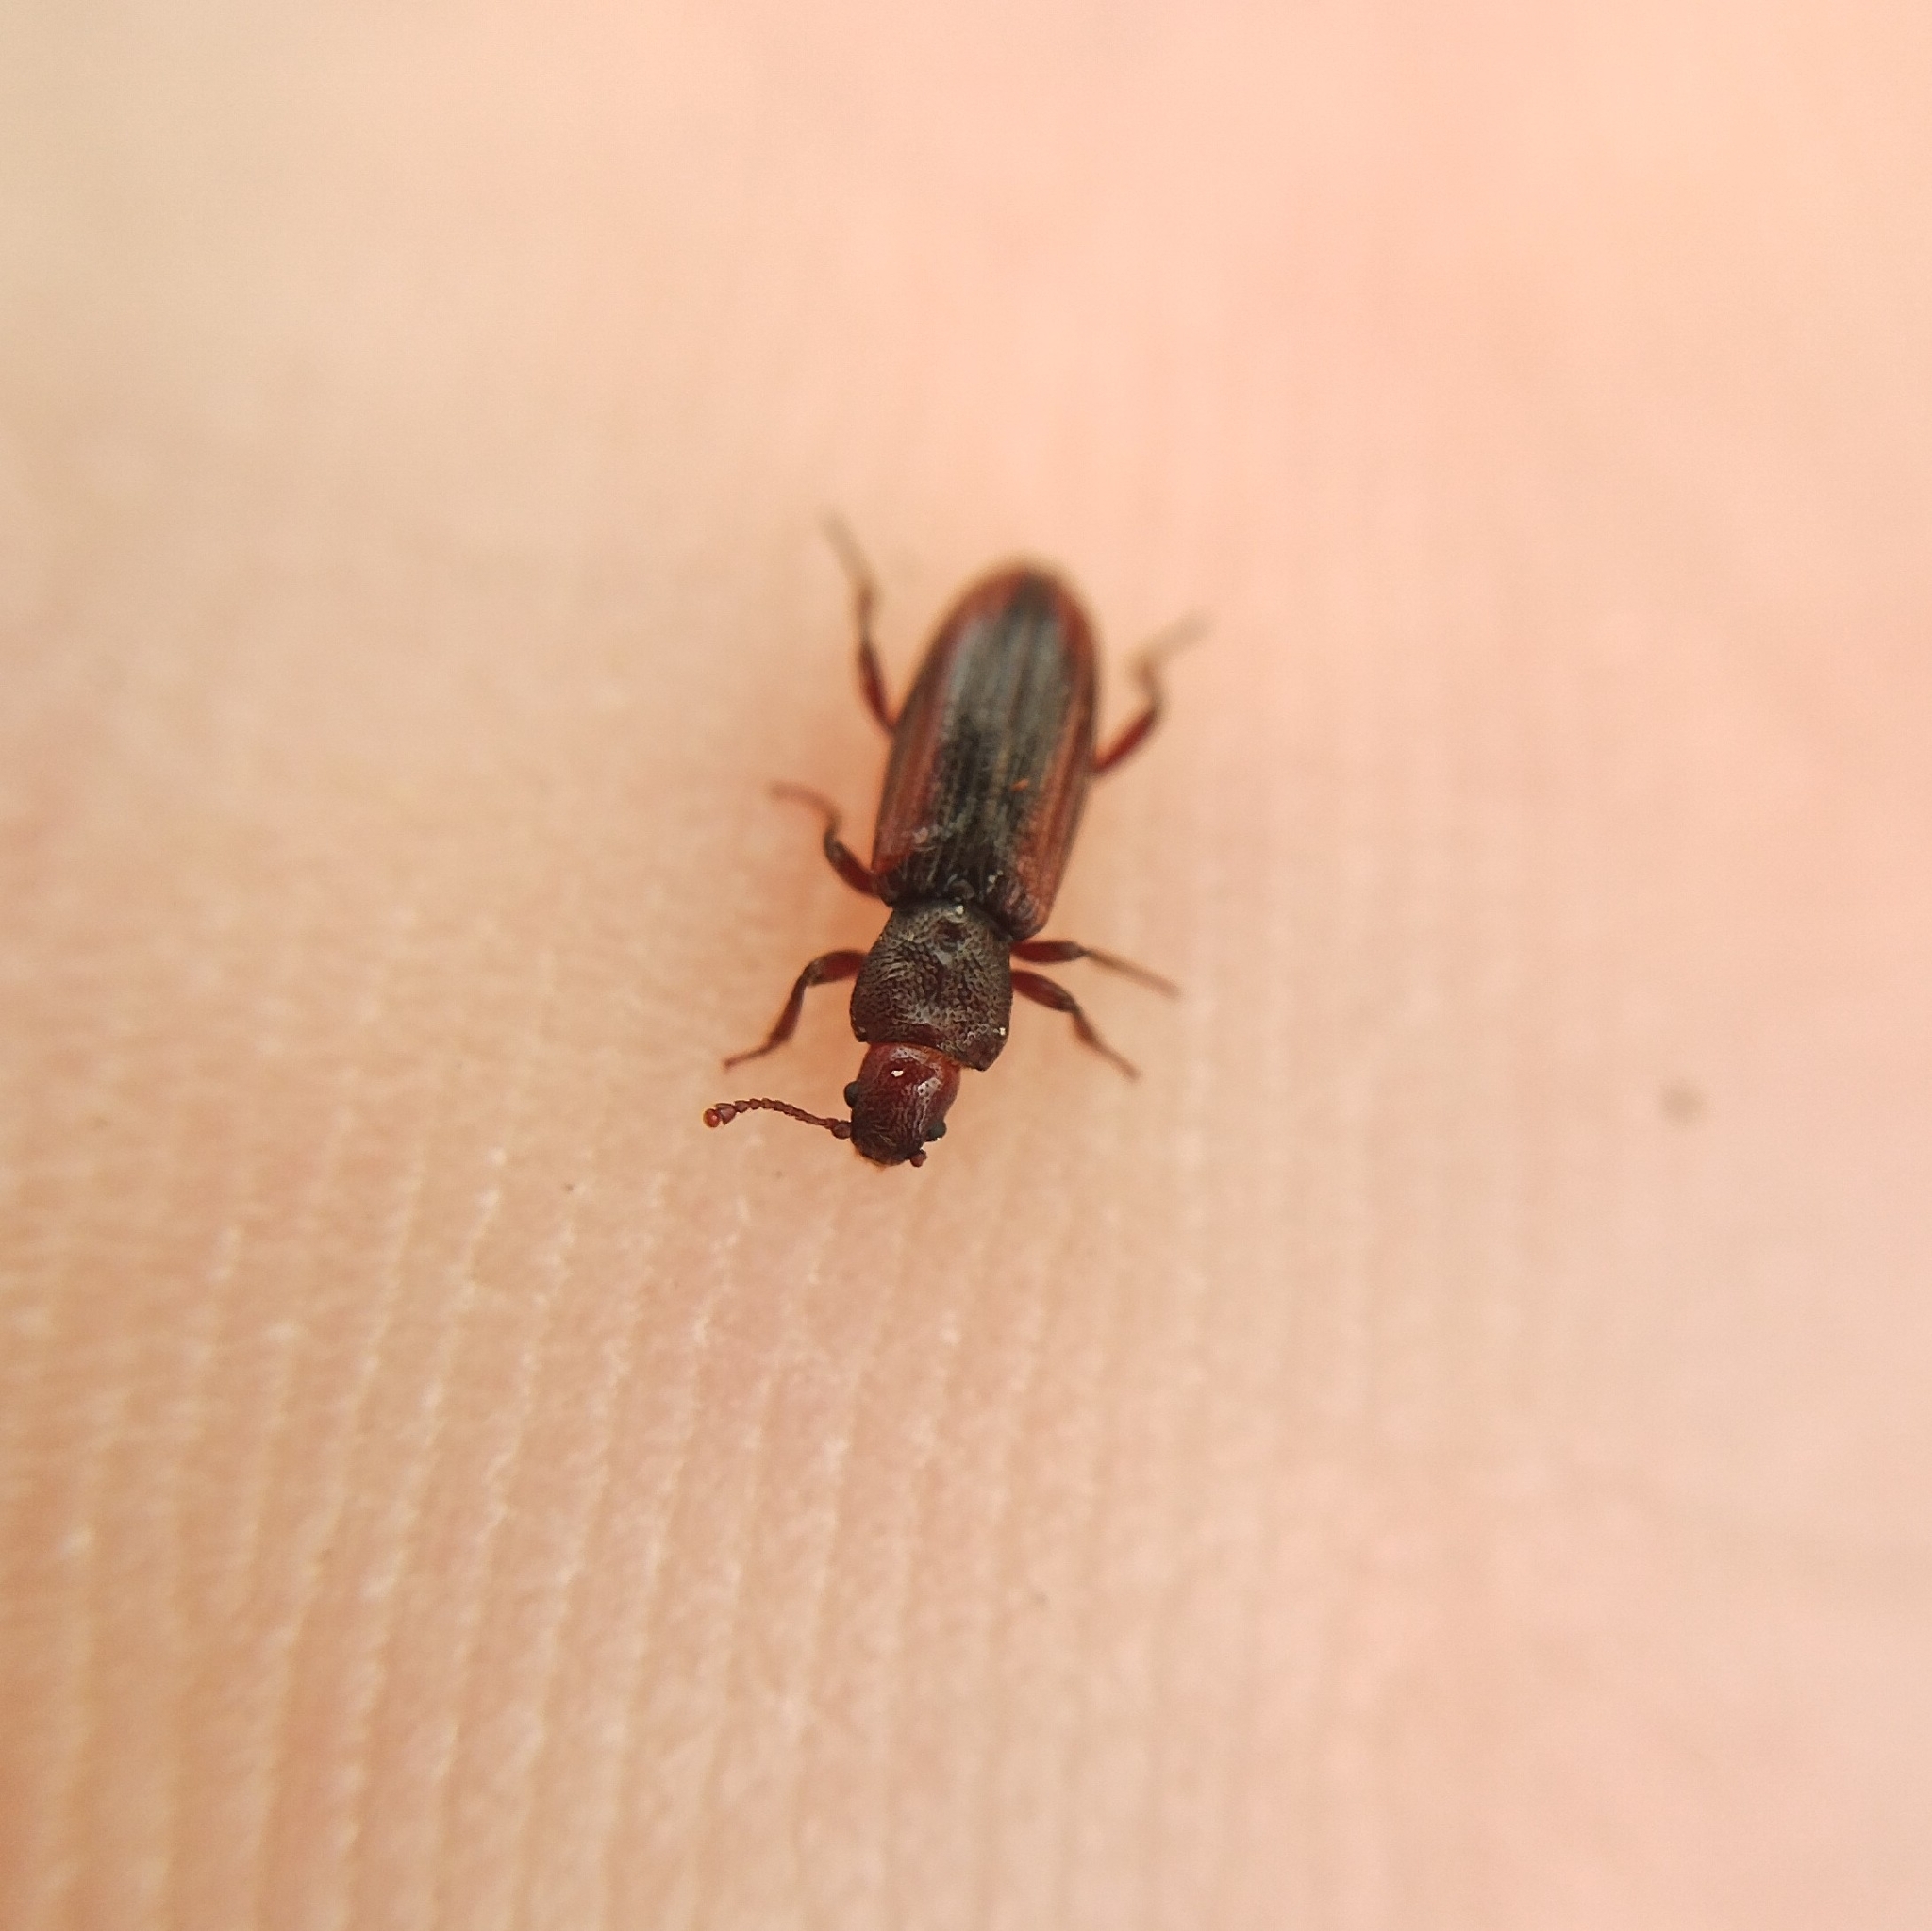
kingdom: Animalia
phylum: Arthropoda
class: Insecta
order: Coleoptera
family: Bothrideridae
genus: Bothrideres
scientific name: Bothrideres bipunctatus
